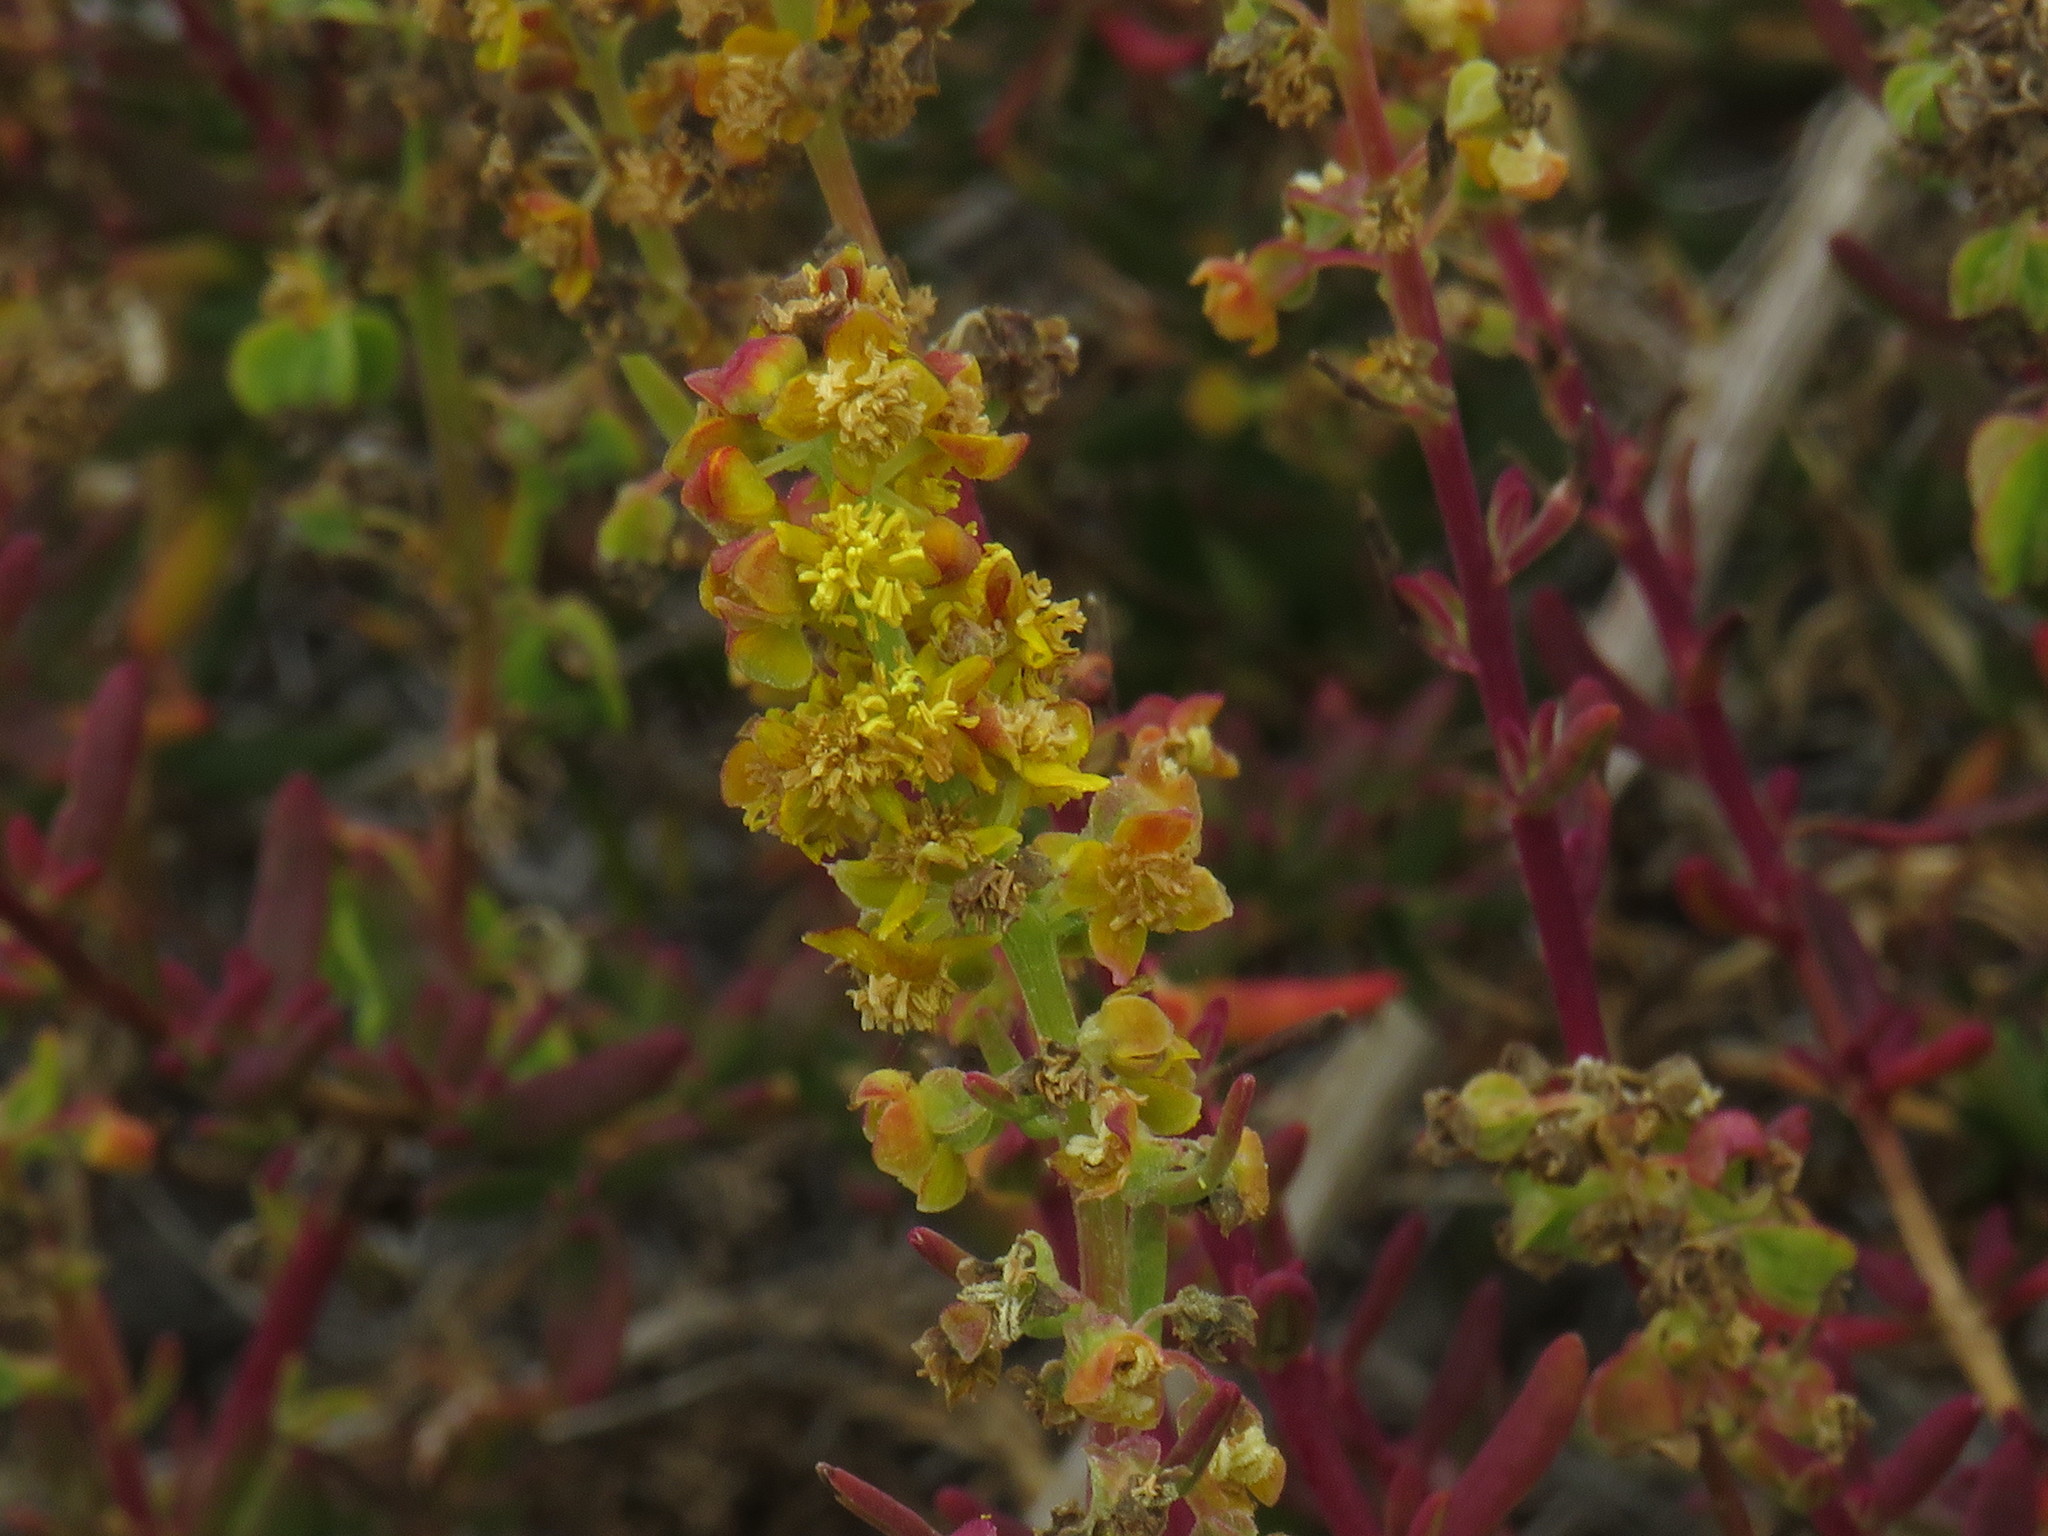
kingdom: Plantae
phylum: Tracheophyta
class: Magnoliopsida
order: Caryophyllales
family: Aizoaceae
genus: Tetragonia
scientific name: Tetragonia fruticosa
